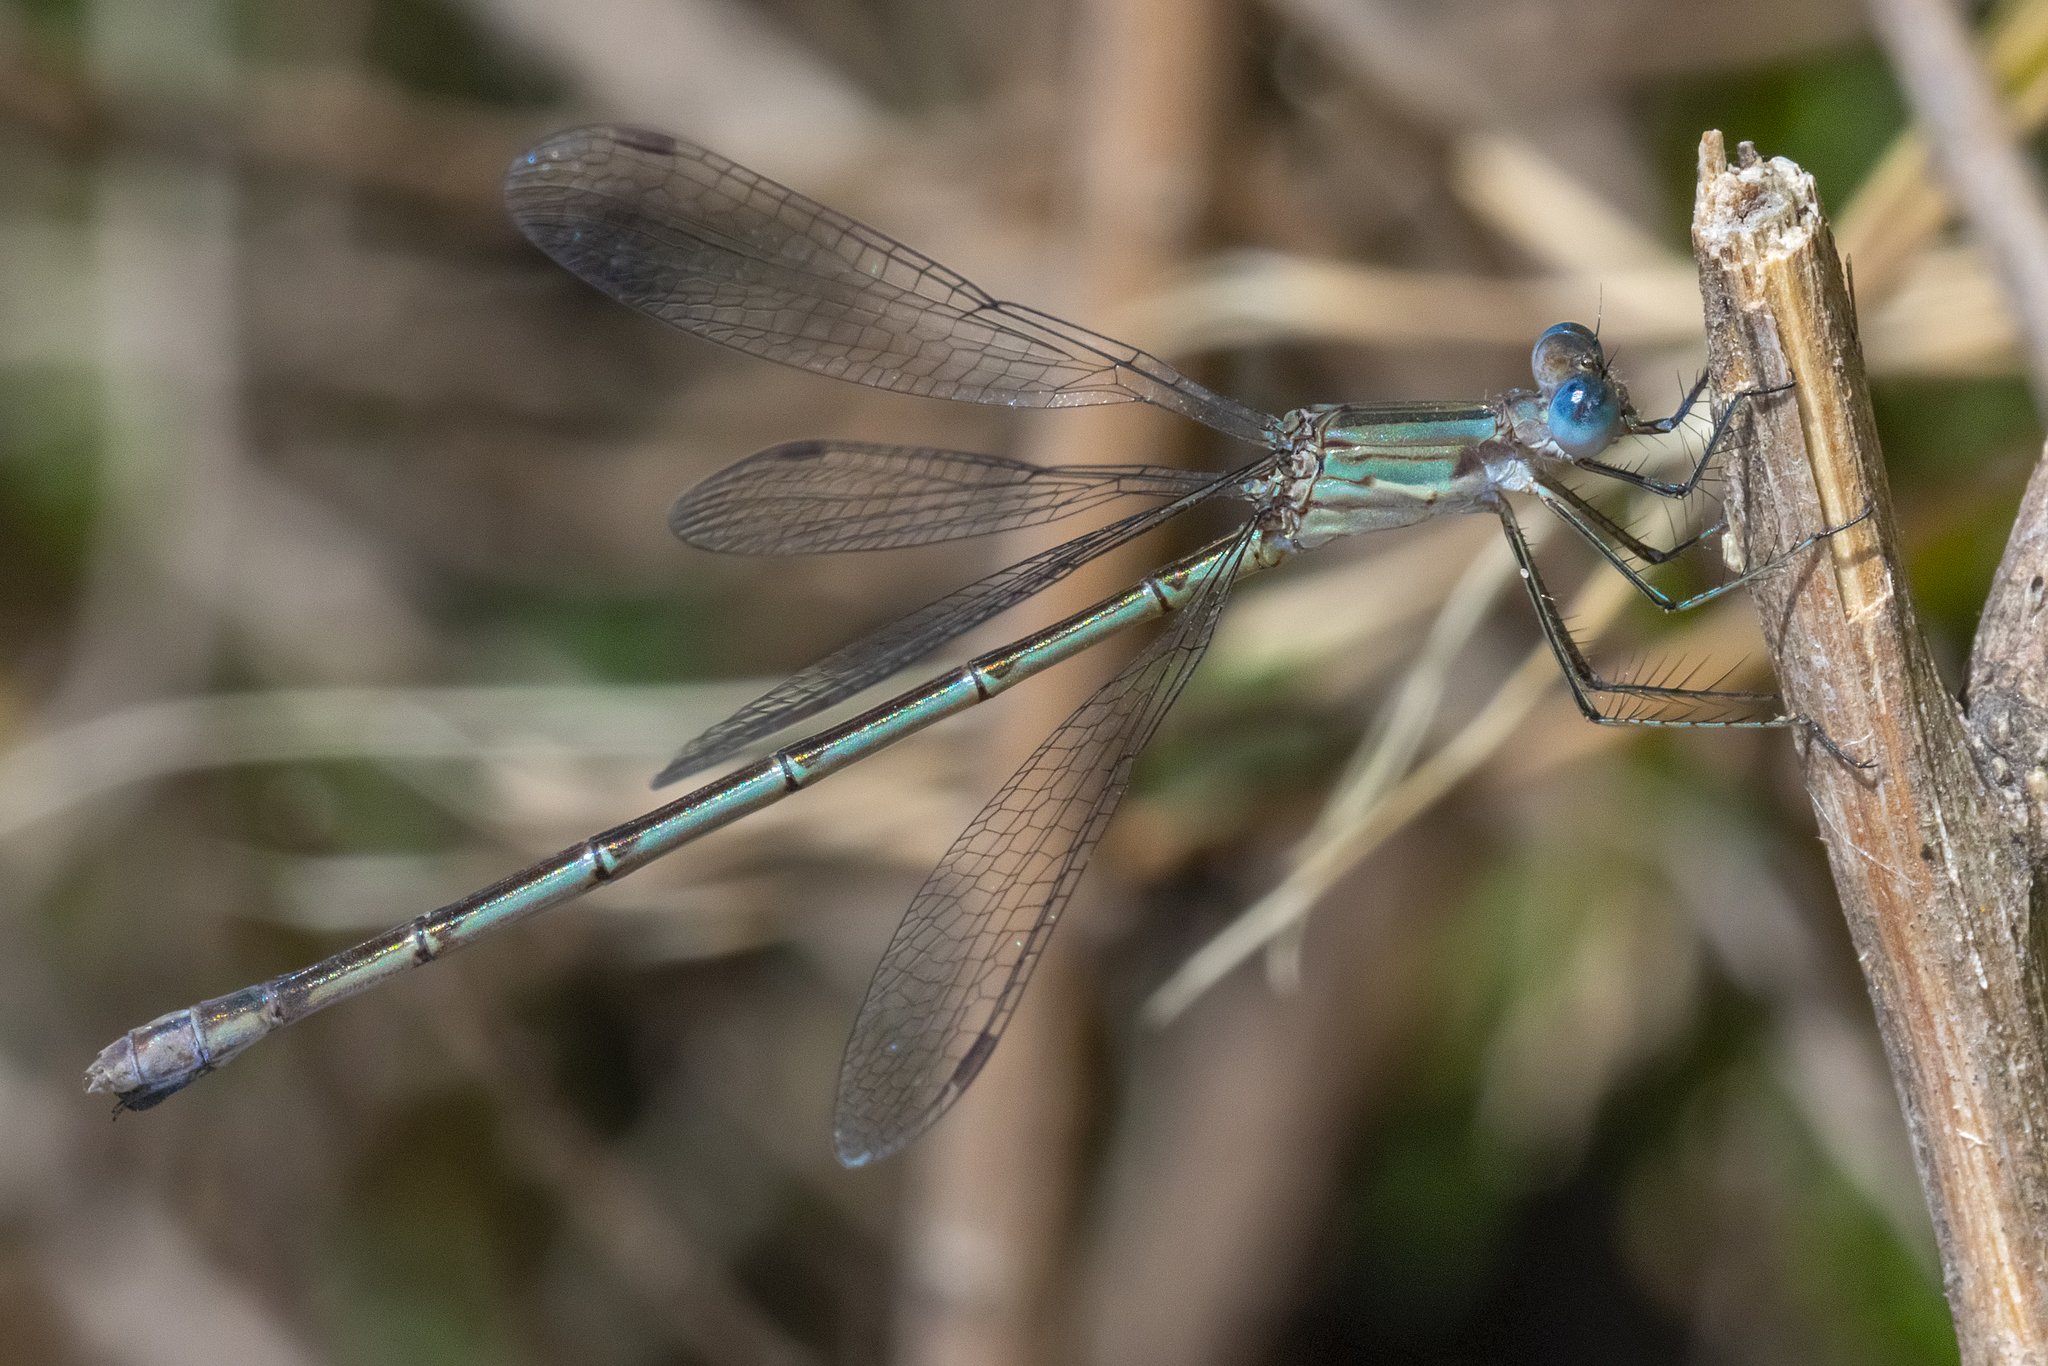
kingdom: Animalia
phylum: Arthropoda
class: Insecta
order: Odonata
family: Lestidae
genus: Lestes
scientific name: Lestes spatula
